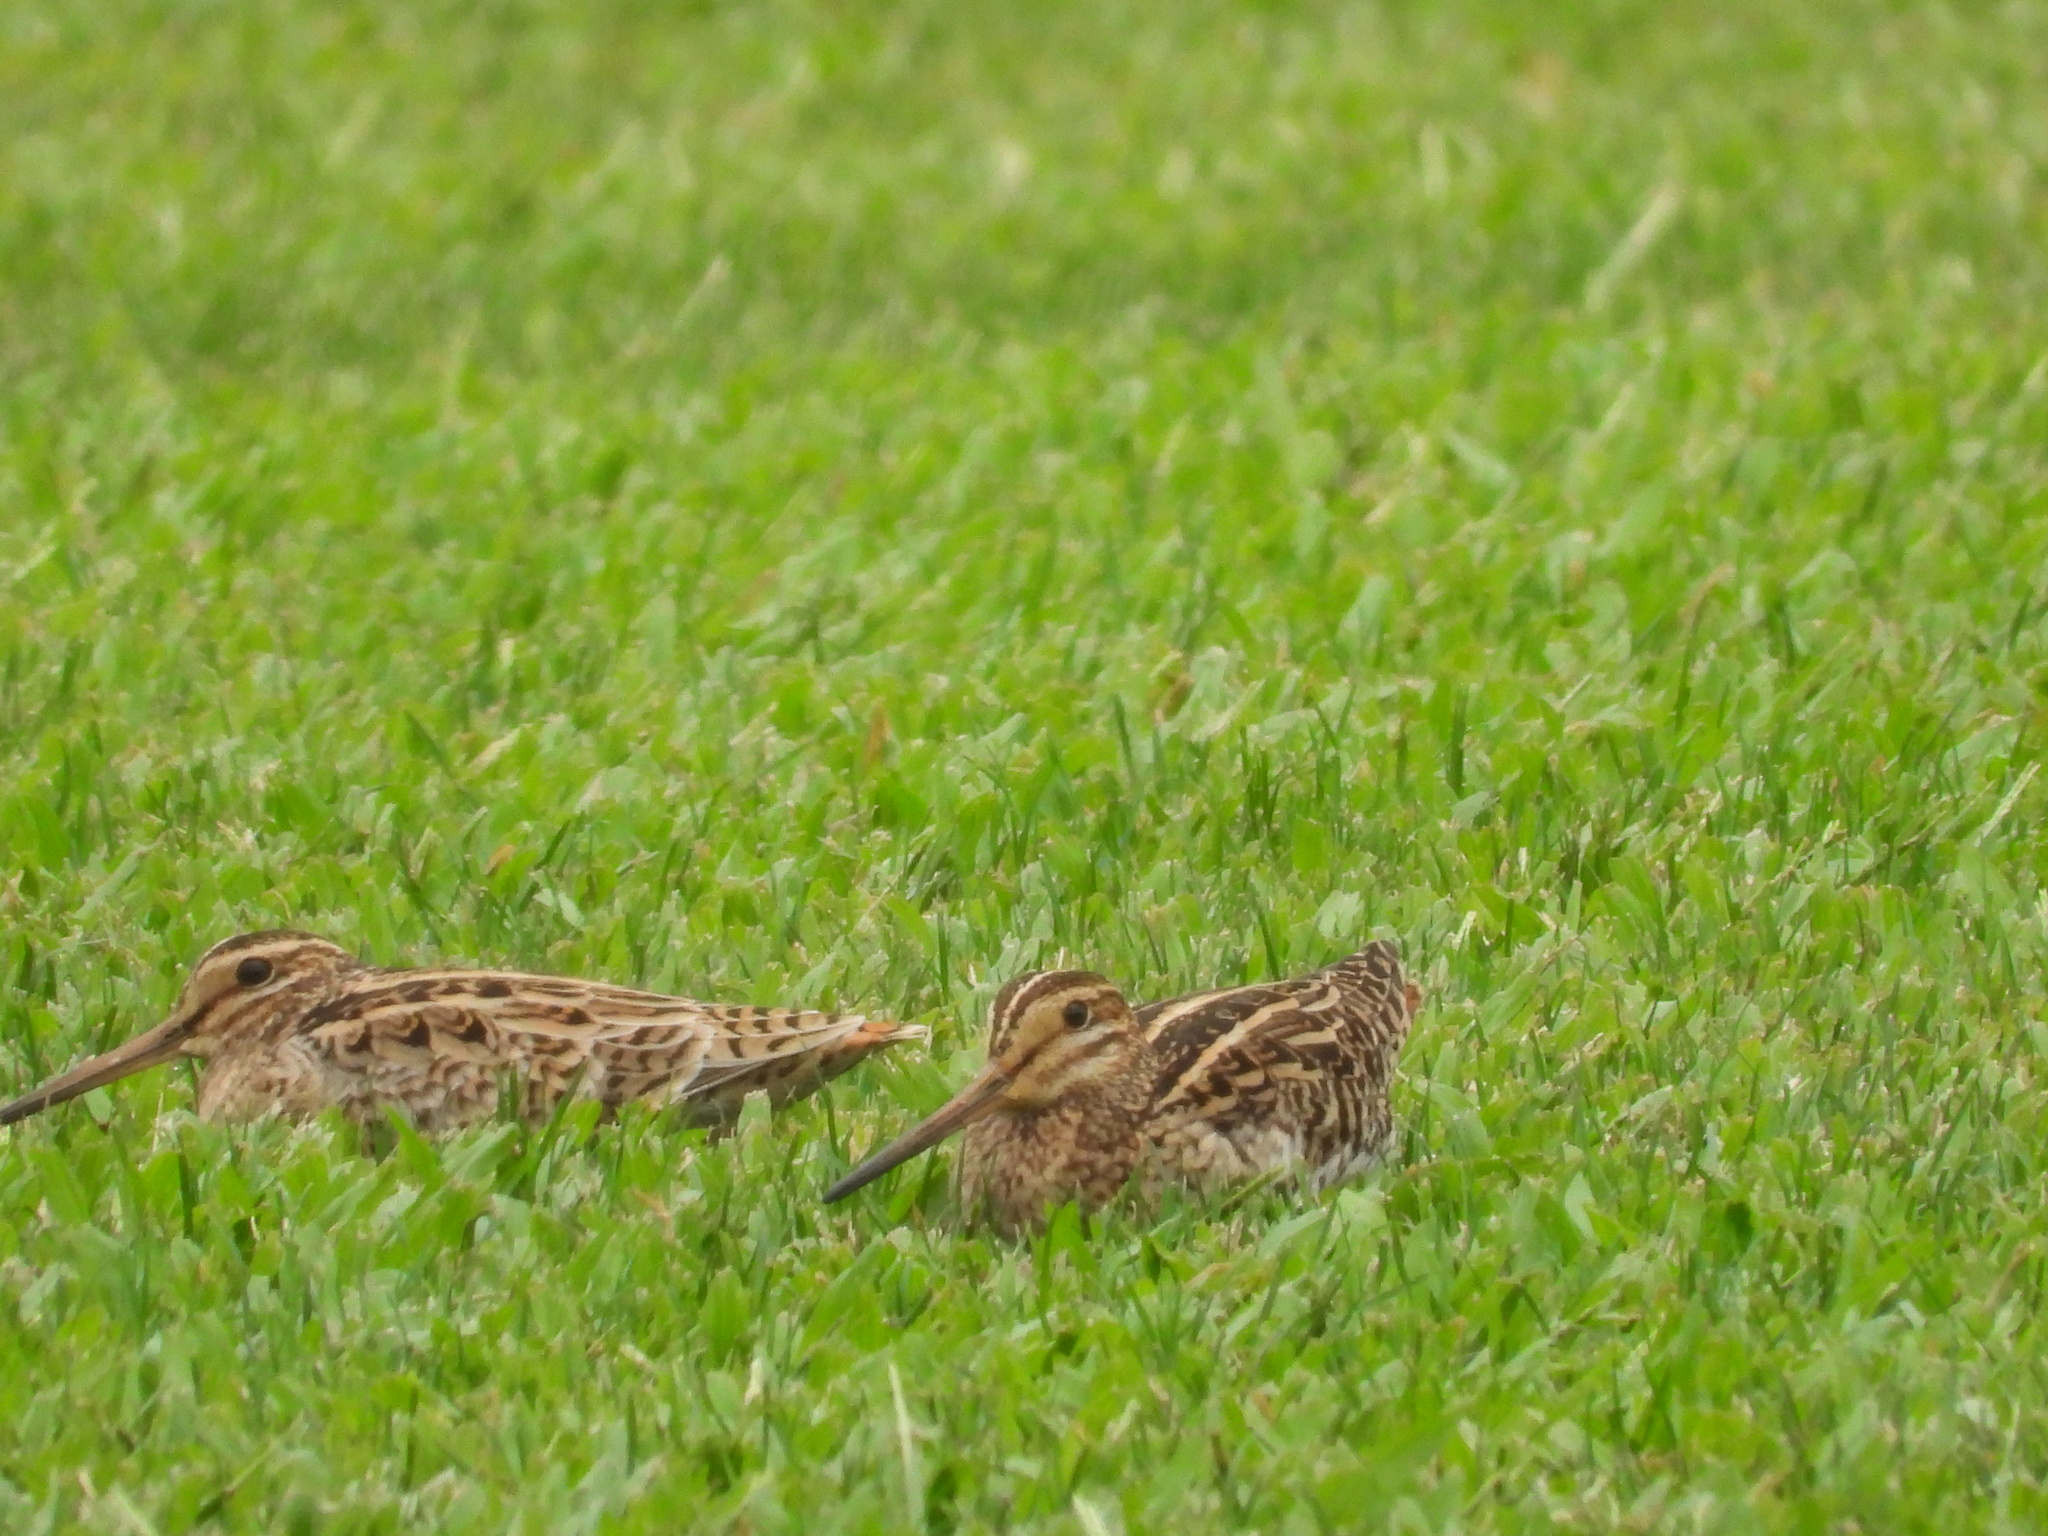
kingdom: Animalia
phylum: Chordata
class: Aves
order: Charadriiformes
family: Scolopacidae
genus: Gallinago
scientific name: Gallinago gallinago
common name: Common snipe
